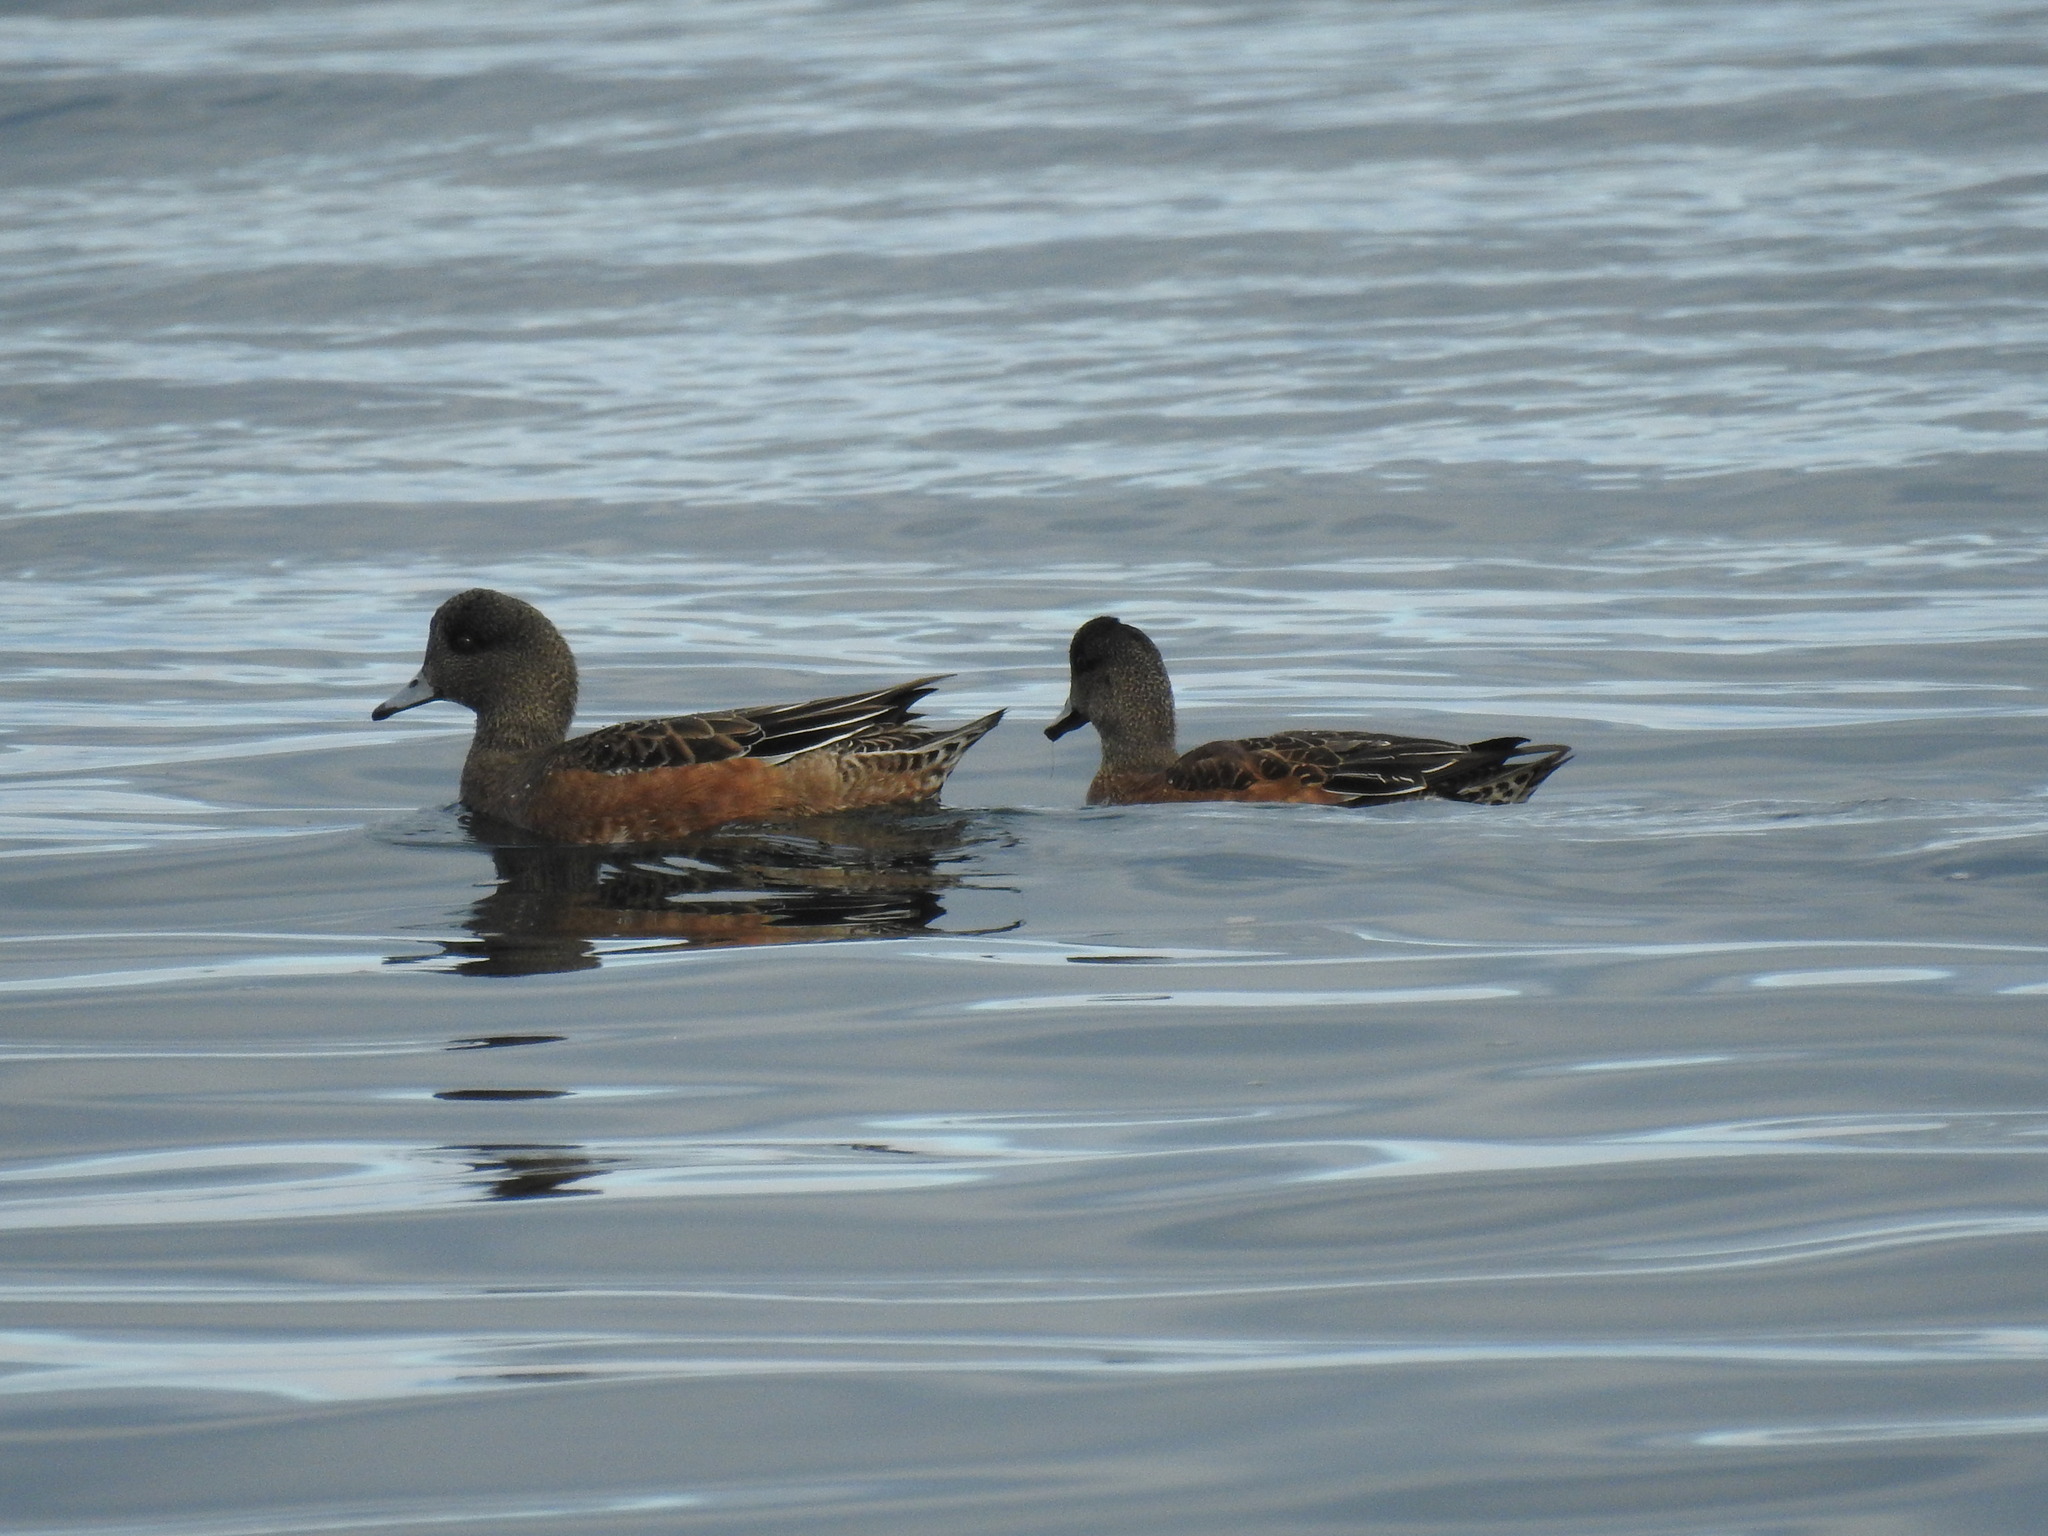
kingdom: Animalia
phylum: Chordata
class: Aves
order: Anseriformes
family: Anatidae
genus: Mareca
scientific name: Mareca americana
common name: American wigeon
